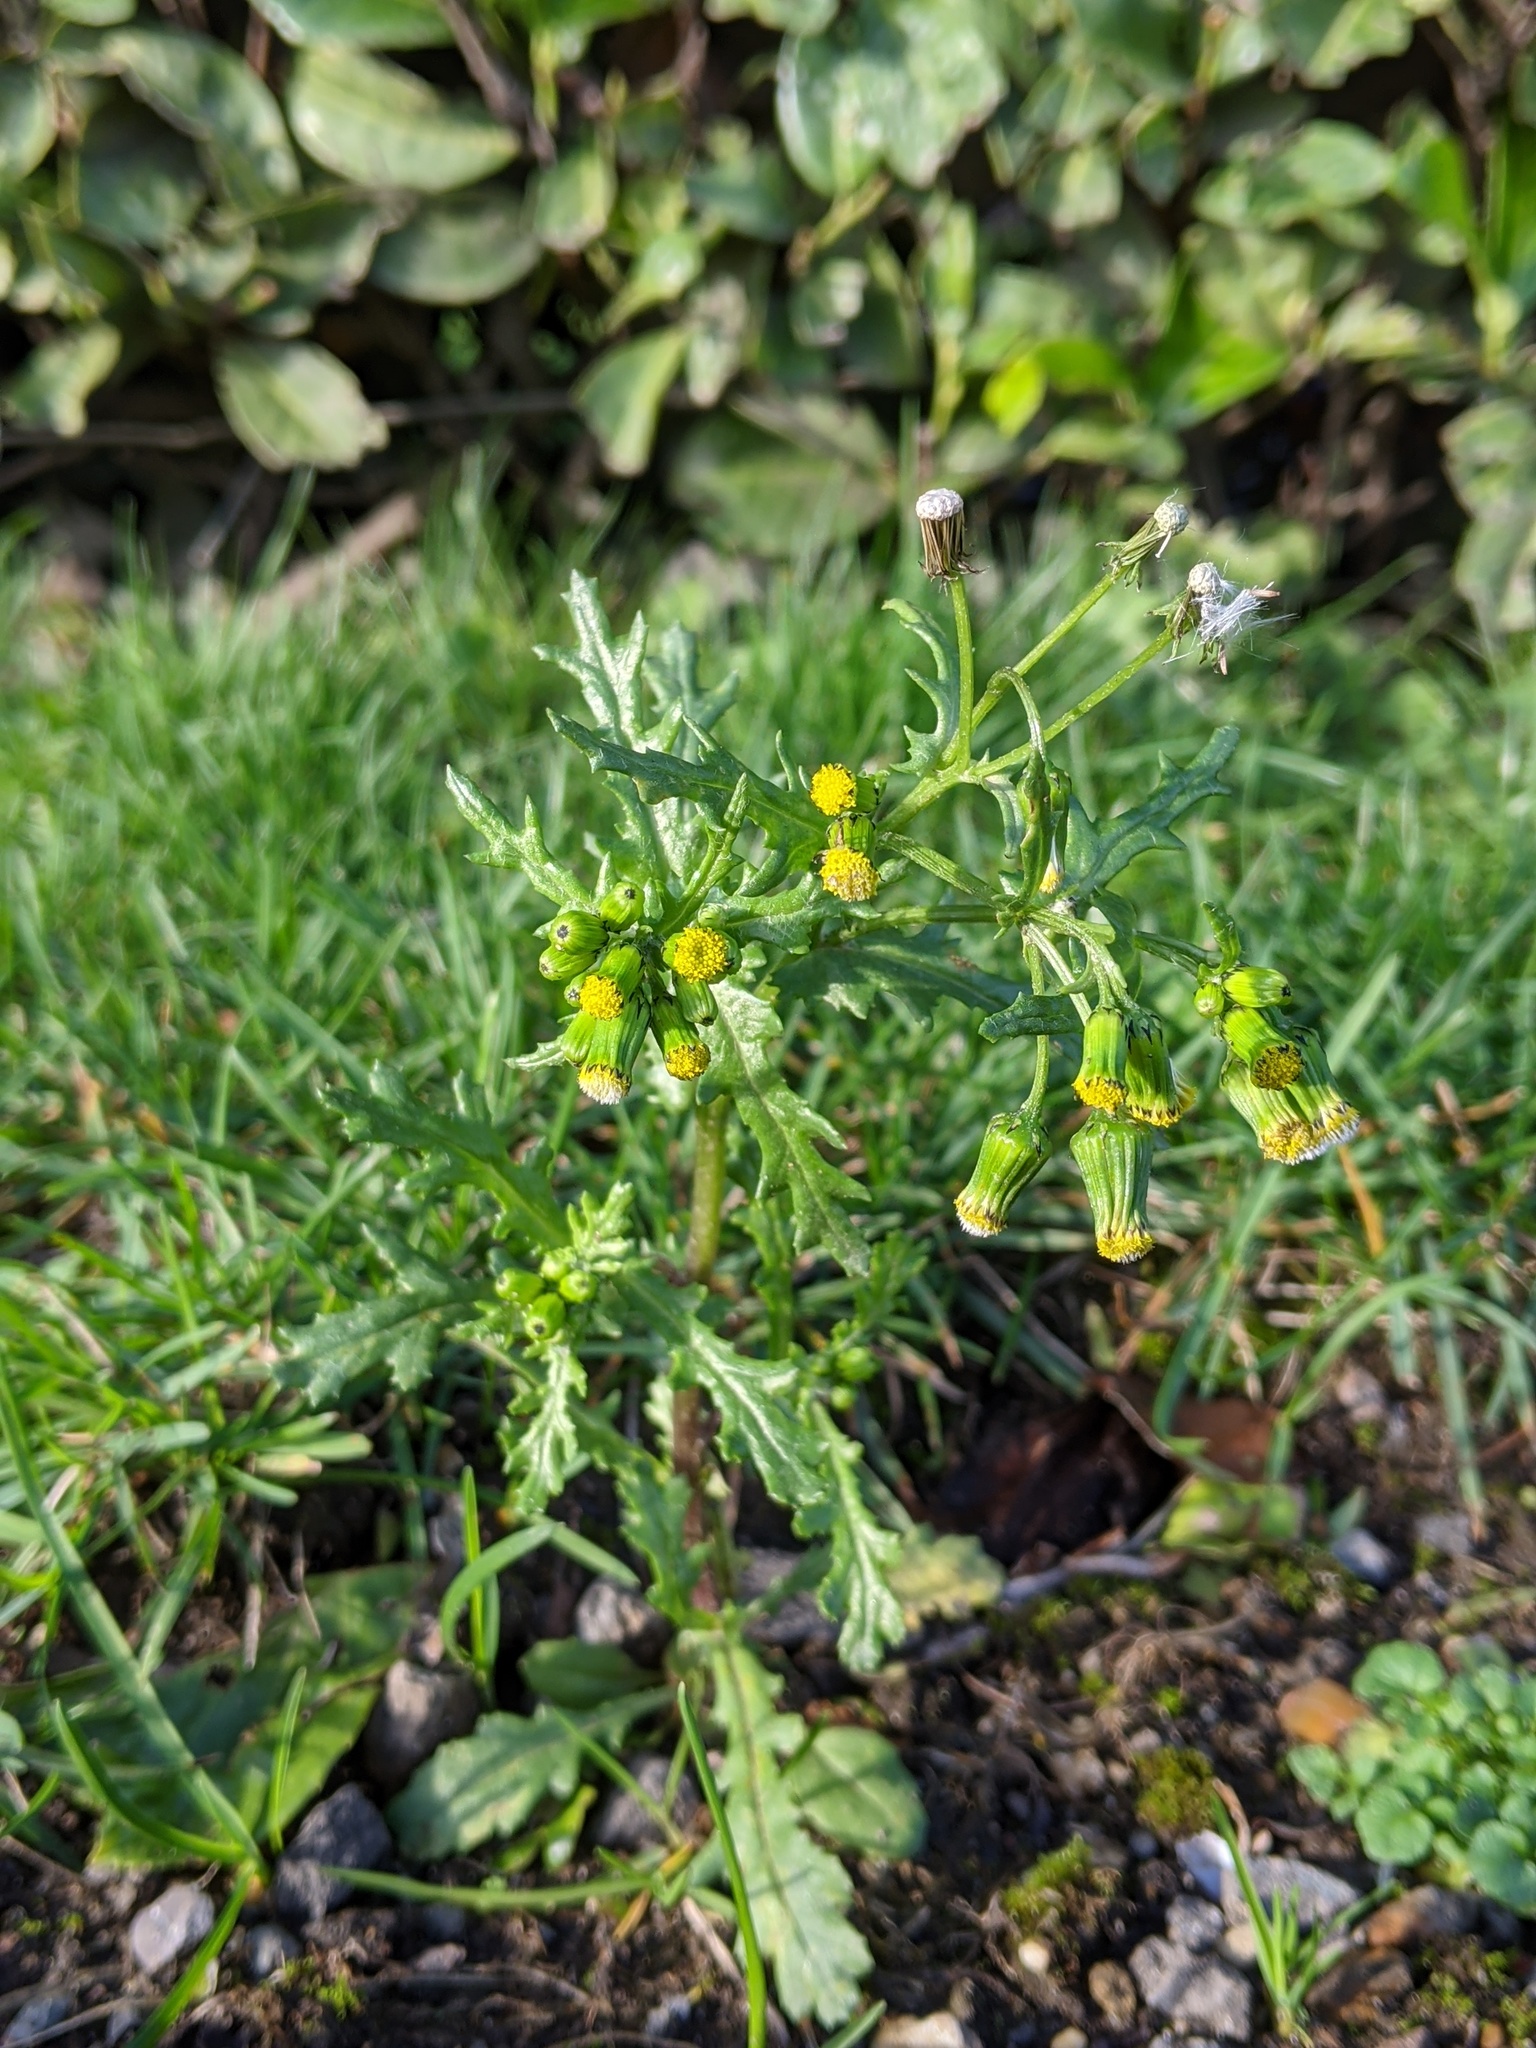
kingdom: Plantae
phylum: Tracheophyta
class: Magnoliopsida
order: Asterales
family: Asteraceae
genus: Senecio
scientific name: Senecio vulgaris
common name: Old-man-in-the-spring
